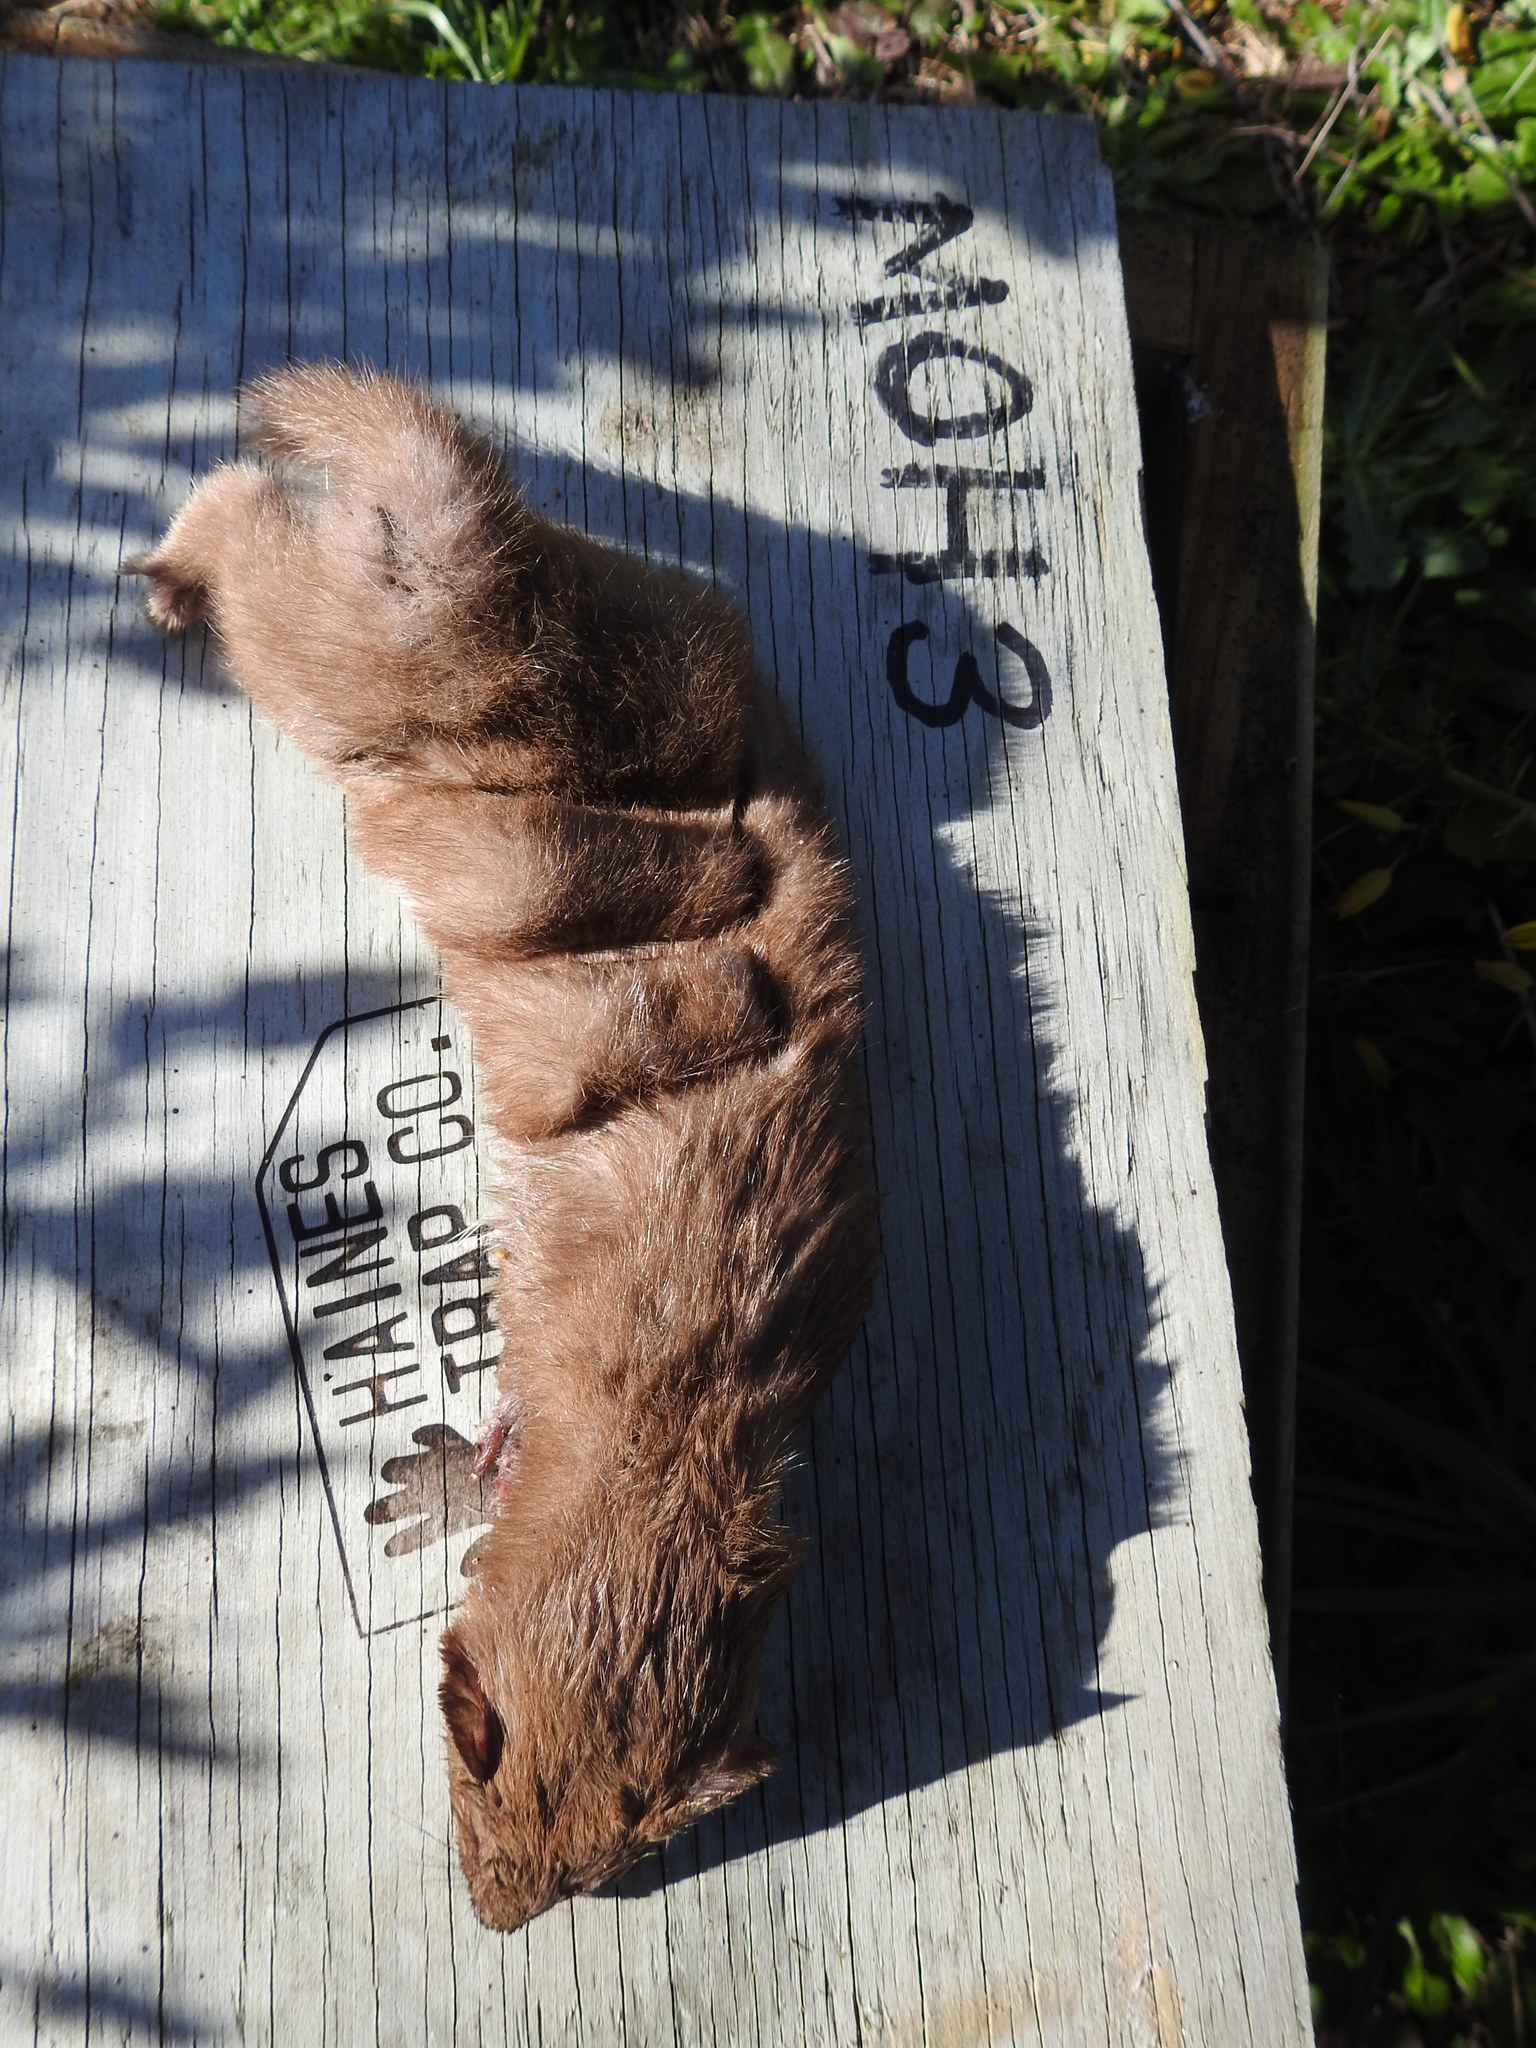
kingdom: Animalia
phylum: Chordata
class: Mammalia
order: Carnivora
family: Mustelidae
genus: Mustela
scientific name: Mustela nivalis
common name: Least weasel
